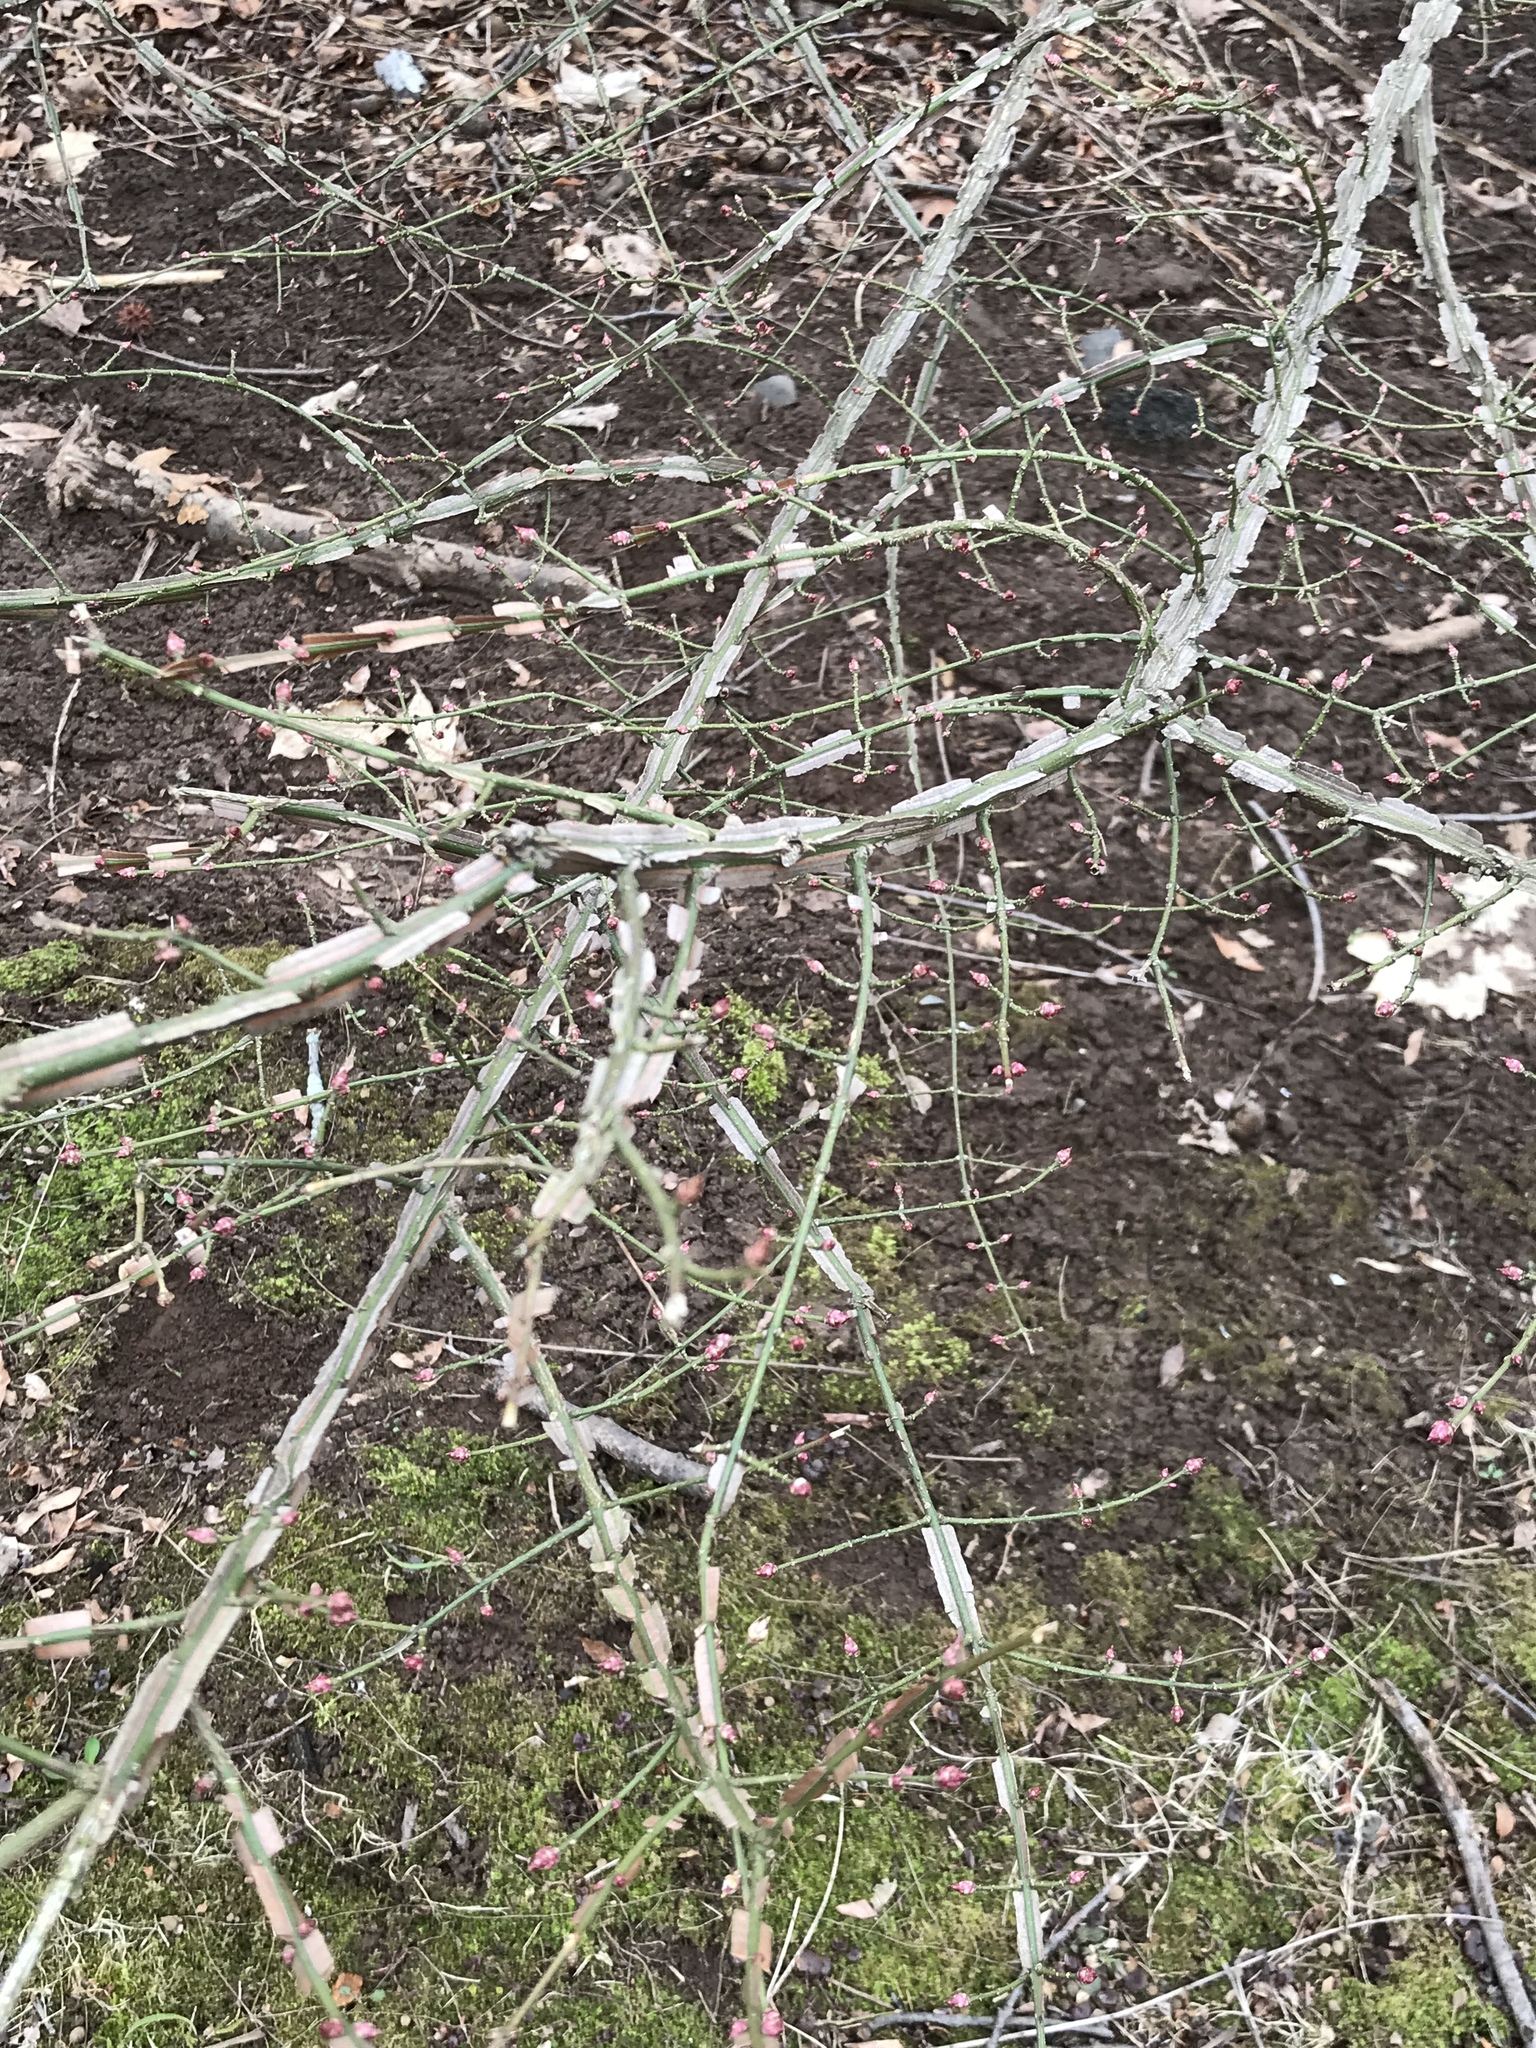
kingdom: Plantae
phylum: Tracheophyta
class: Magnoliopsida
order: Celastrales
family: Celastraceae
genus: Euonymus
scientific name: Euonymus alatus
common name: Winged euonymus
